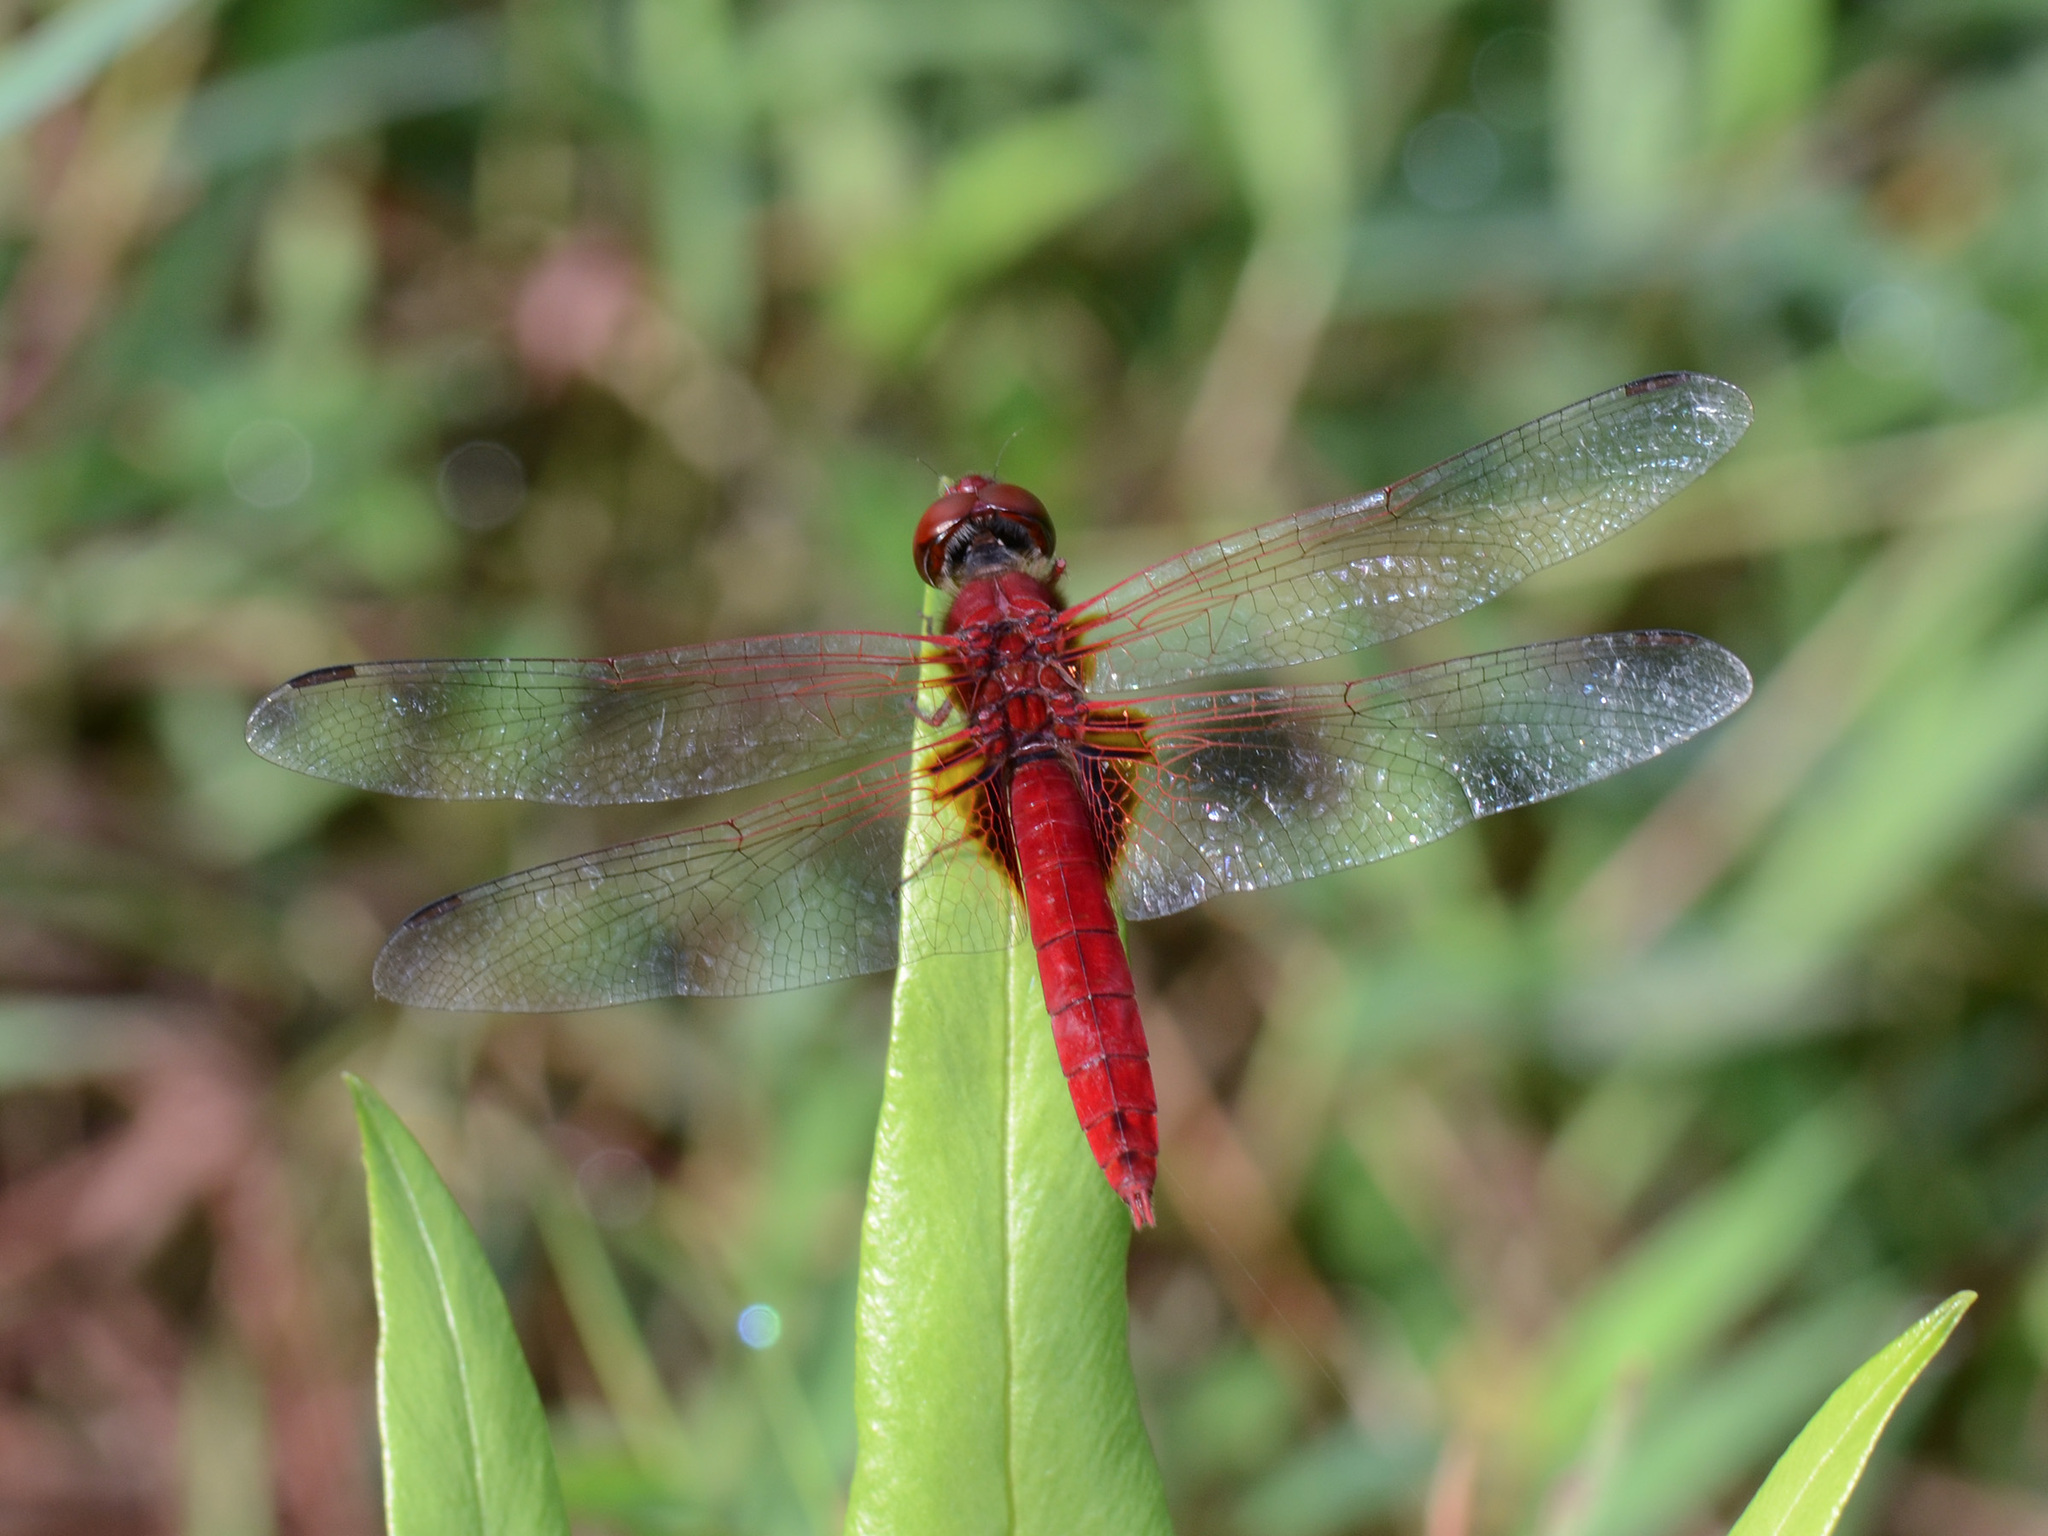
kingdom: Animalia
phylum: Arthropoda
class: Insecta
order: Odonata
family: Libellulidae
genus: Urothemis
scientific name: Urothemis signata
